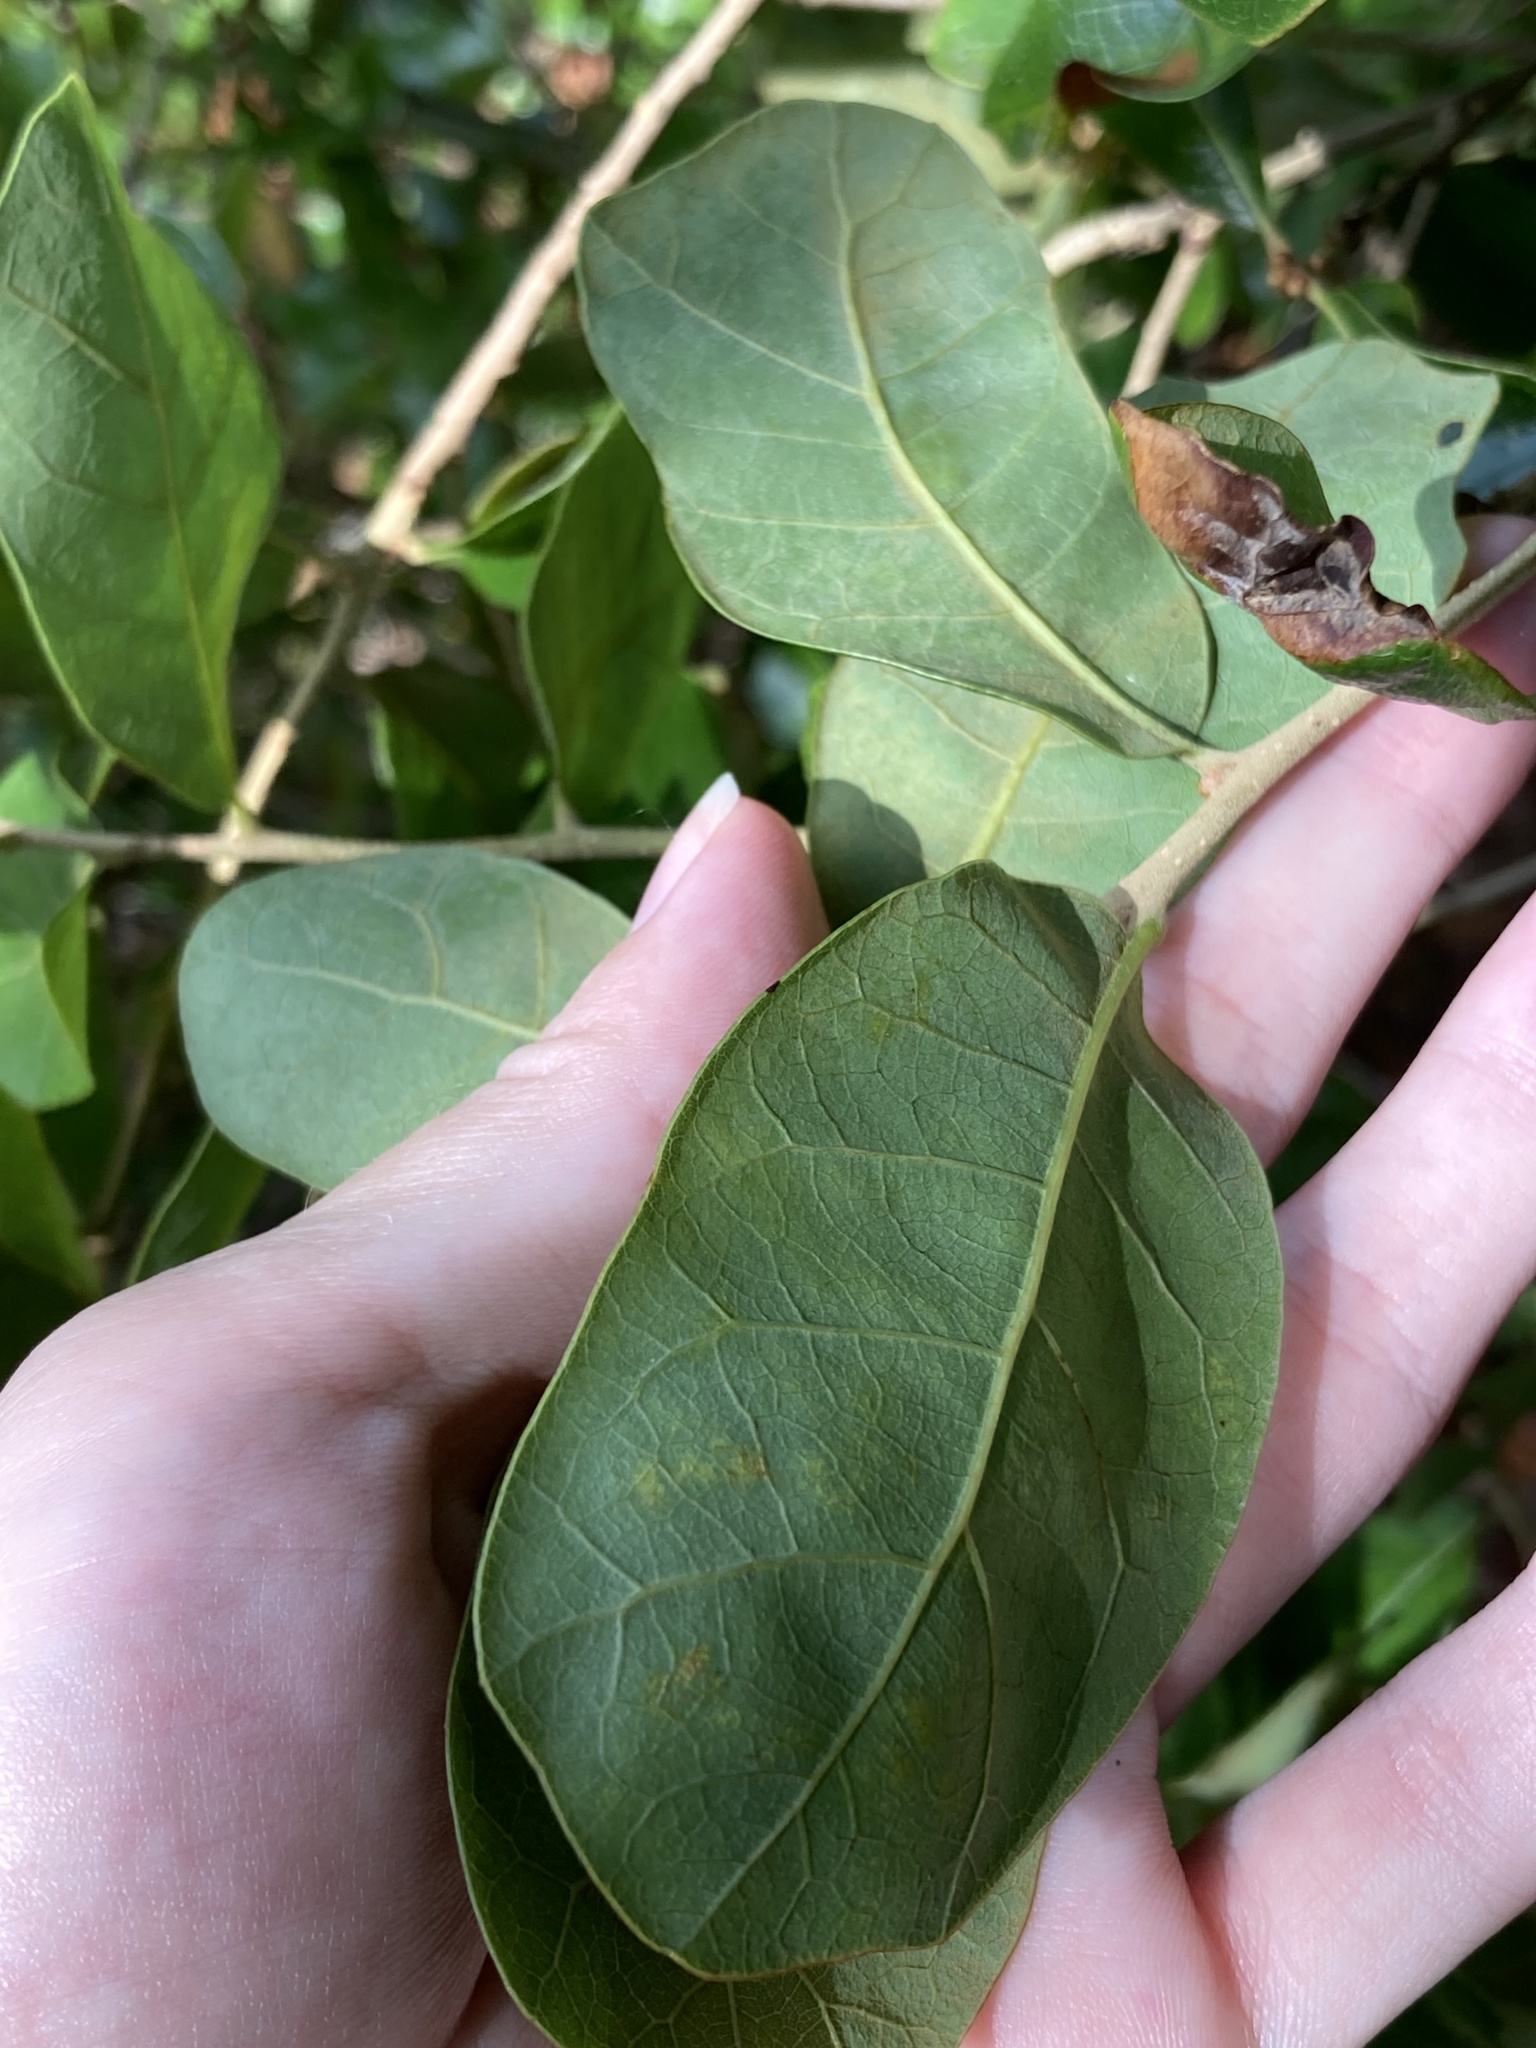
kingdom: Plantae
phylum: Tracheophyta
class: Magnoliopsida
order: Fagales
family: Fagaceae
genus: Quercus
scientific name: Quercus chapmanii
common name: Chapman oak
